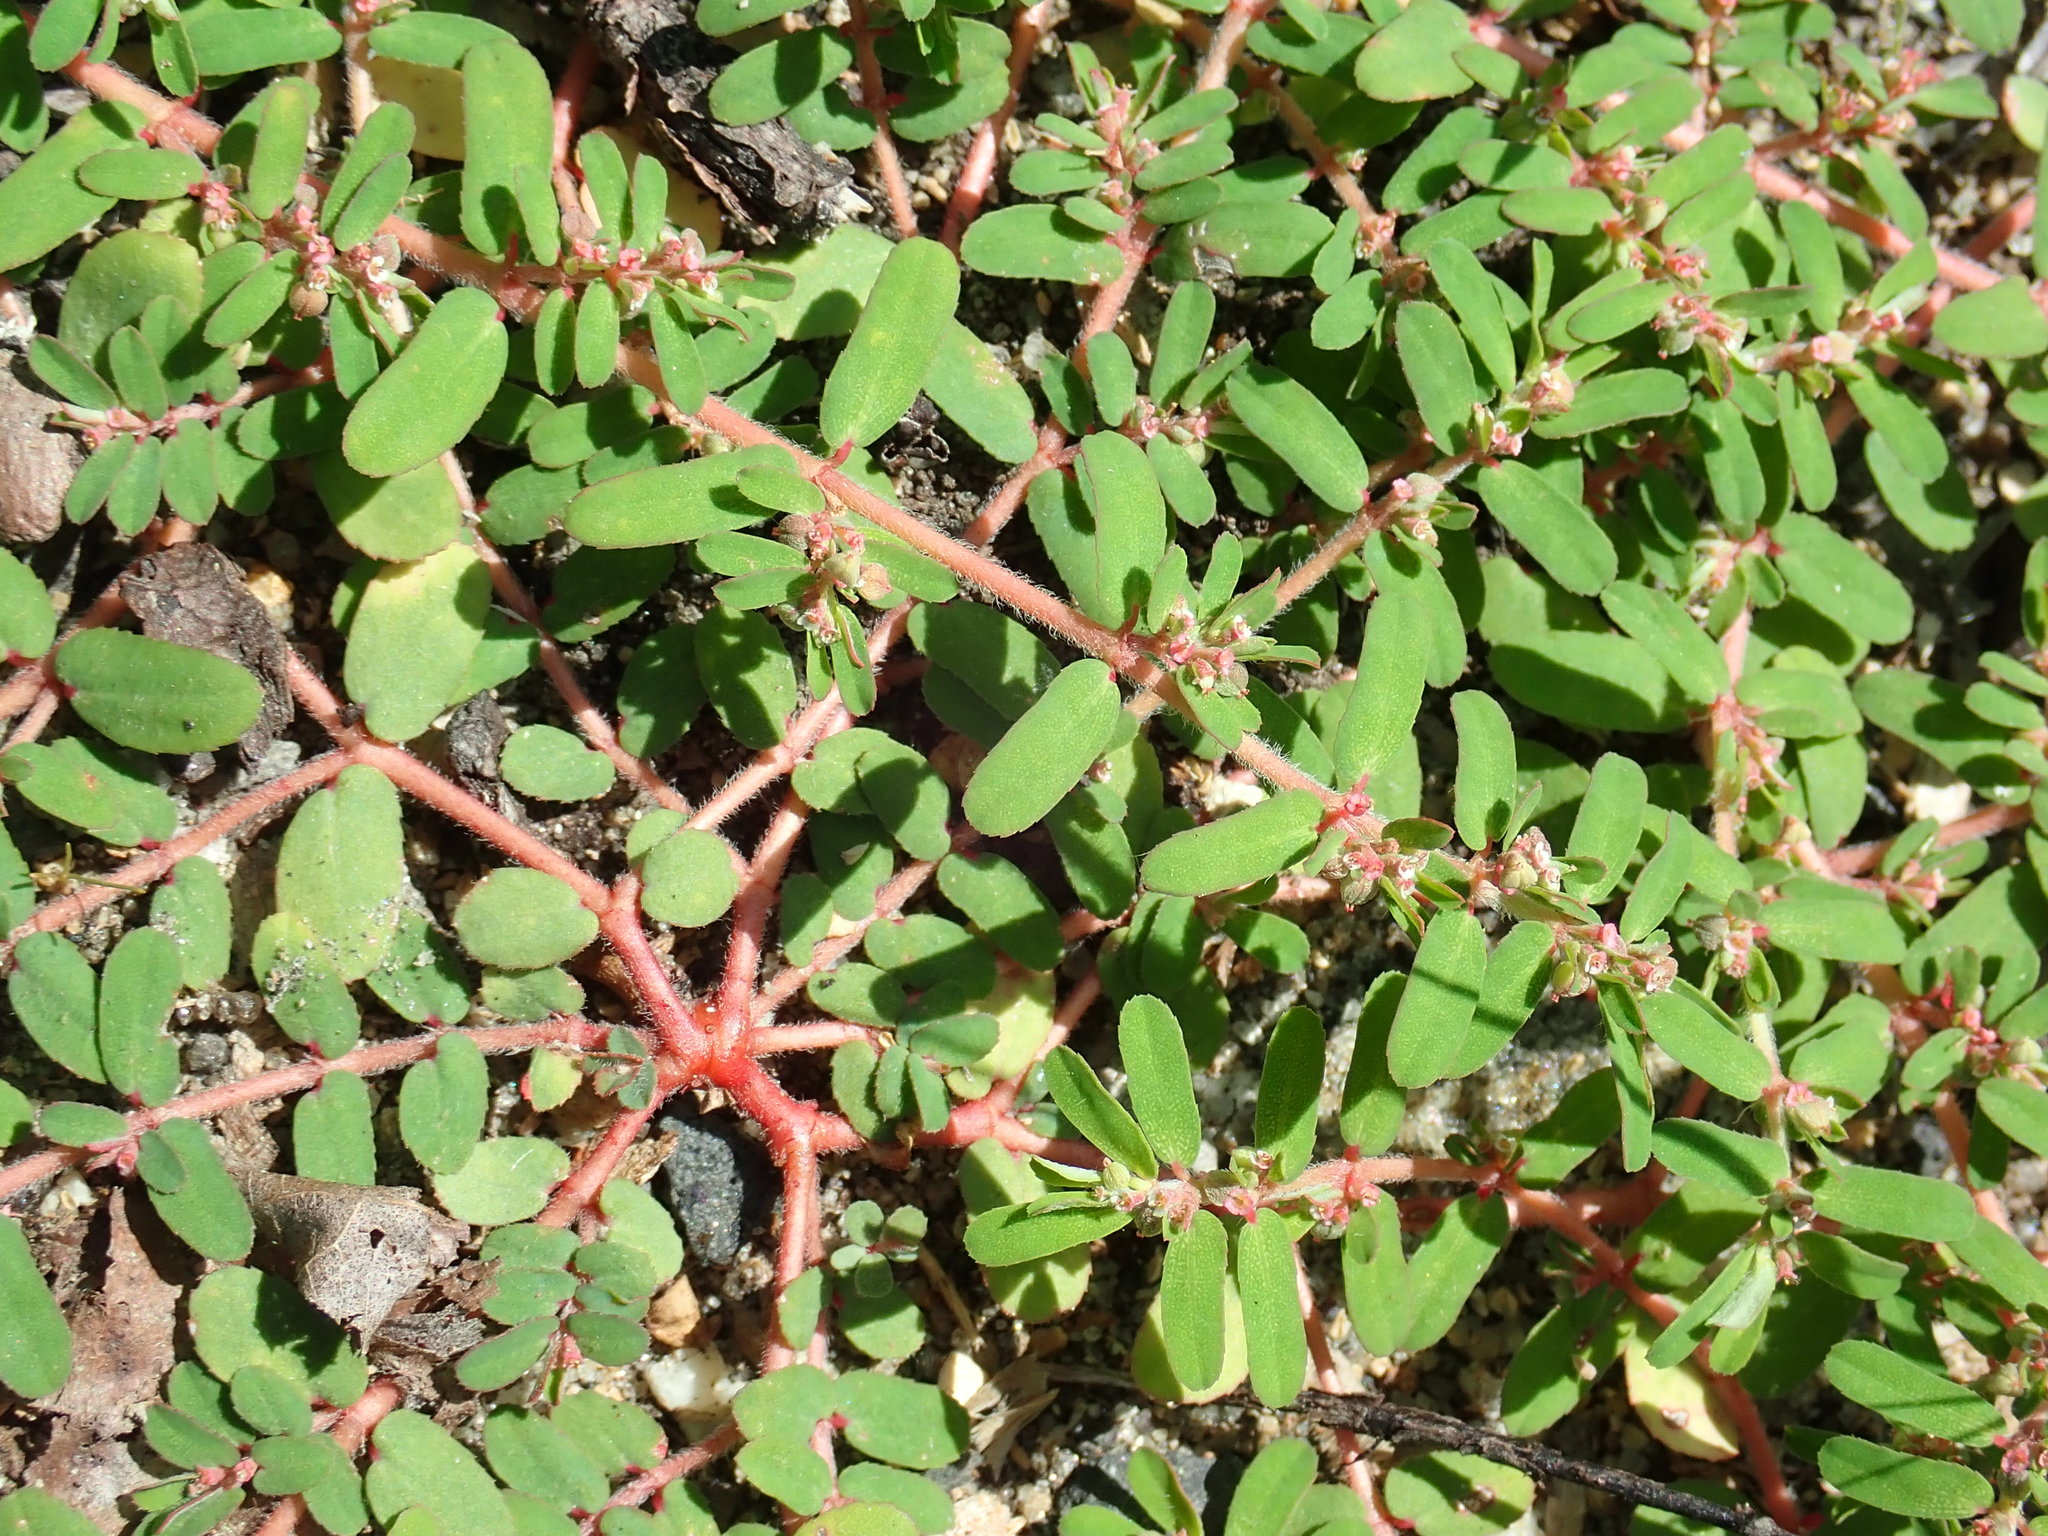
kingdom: Plantae
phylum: Tracheophyta
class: Magnoliopsida
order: Malpighiales
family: Euphorbiaceae
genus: Euphorbia
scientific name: Euphorbia maculata
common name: Spotted spurge
